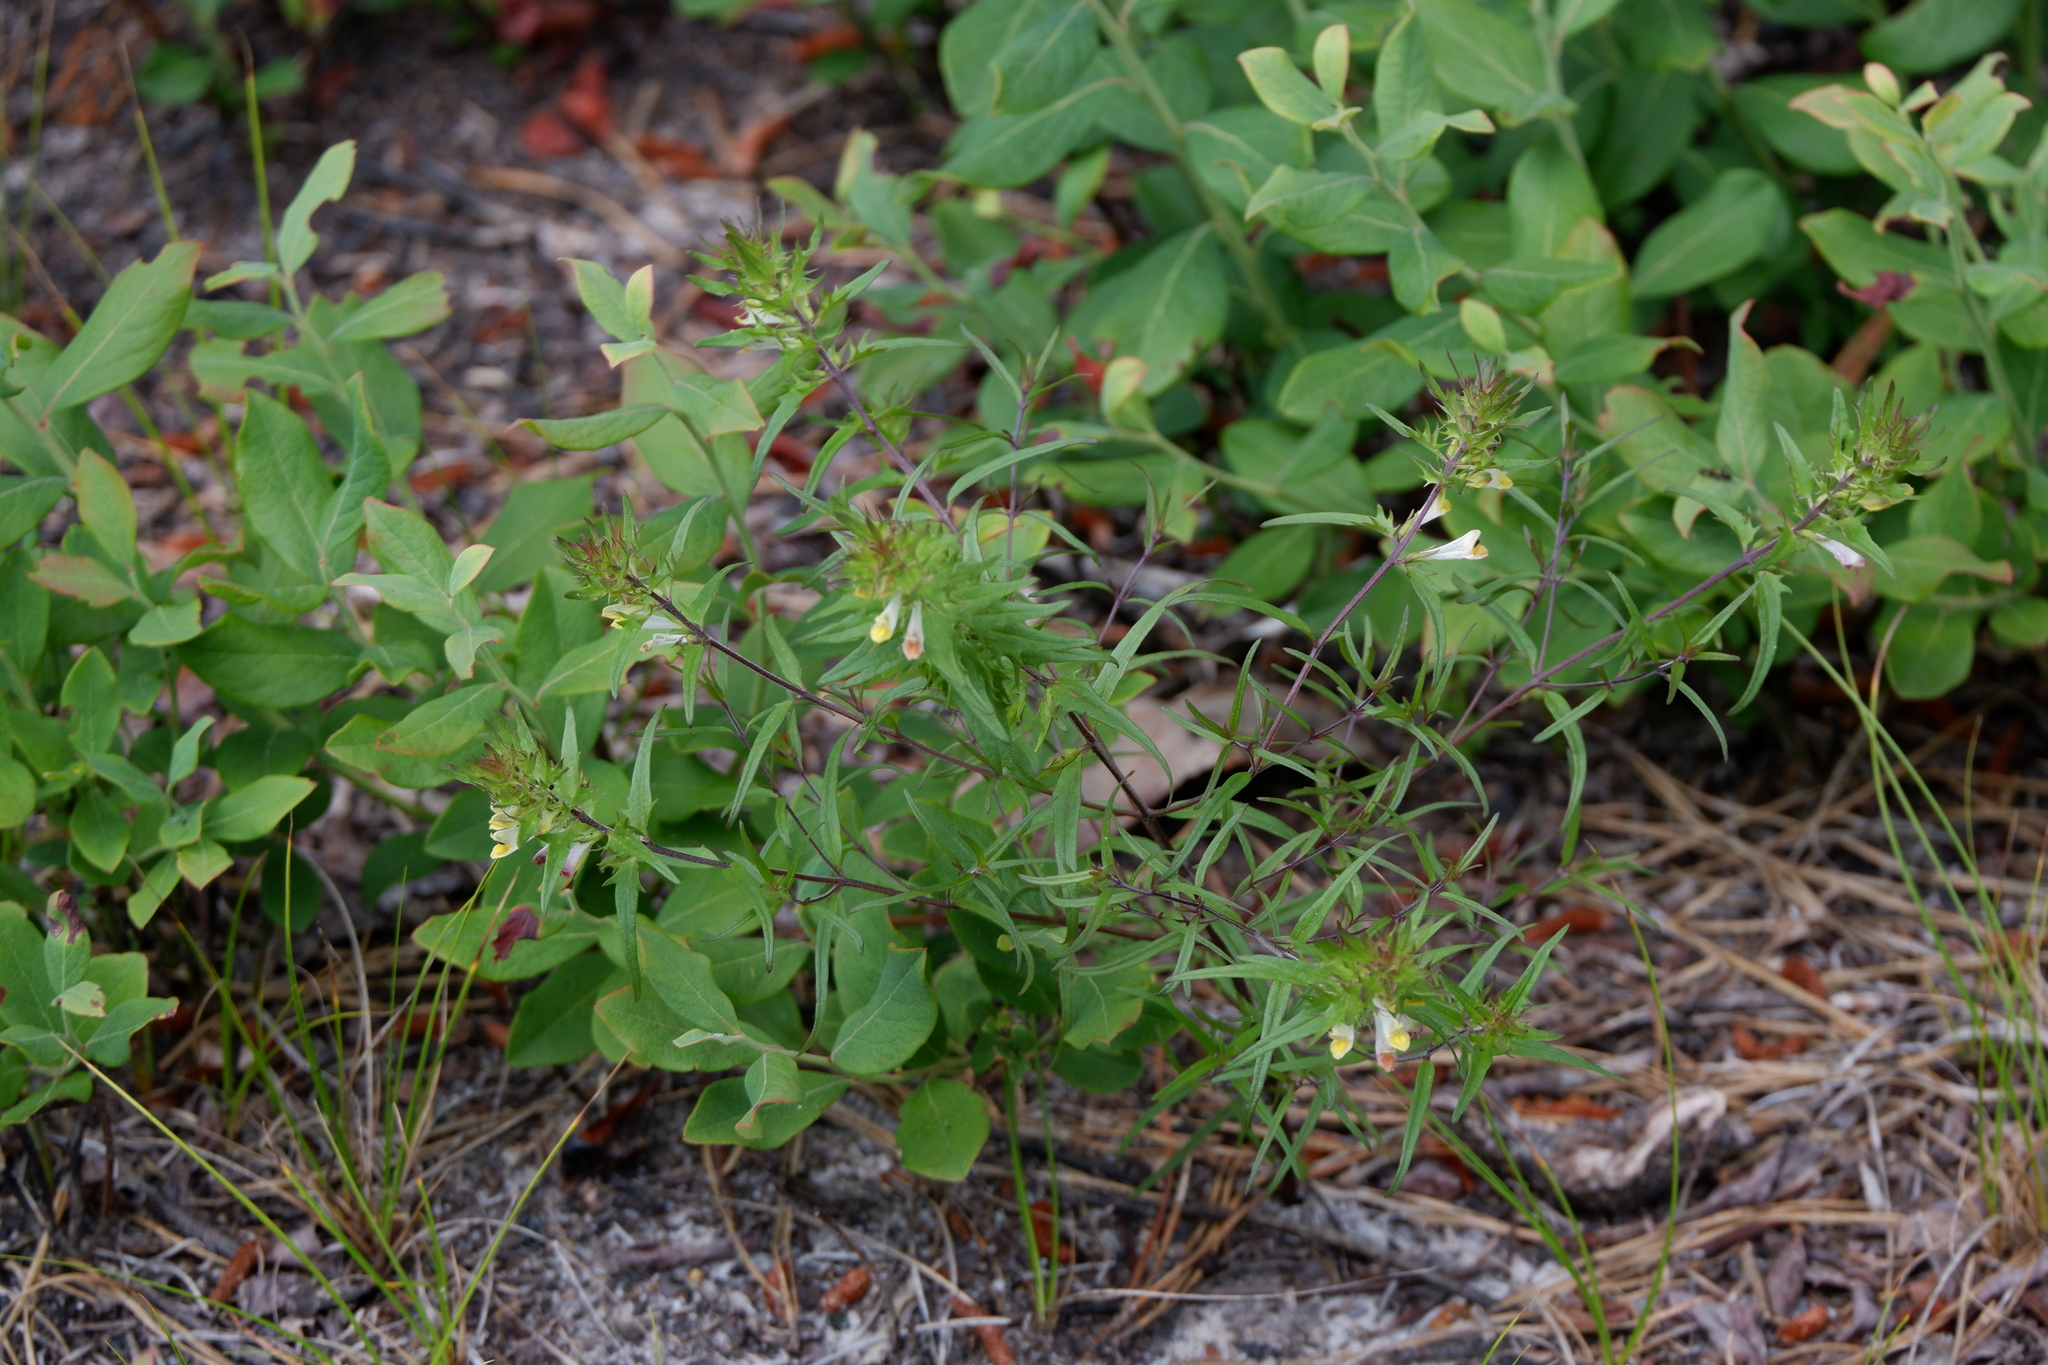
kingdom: Plantae
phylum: Tracheophyta
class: Magnoliopsida
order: Lamiales
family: Orobanchaceae
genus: Melampyrum
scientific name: Melampyrum lineare
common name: American cow-wheat
